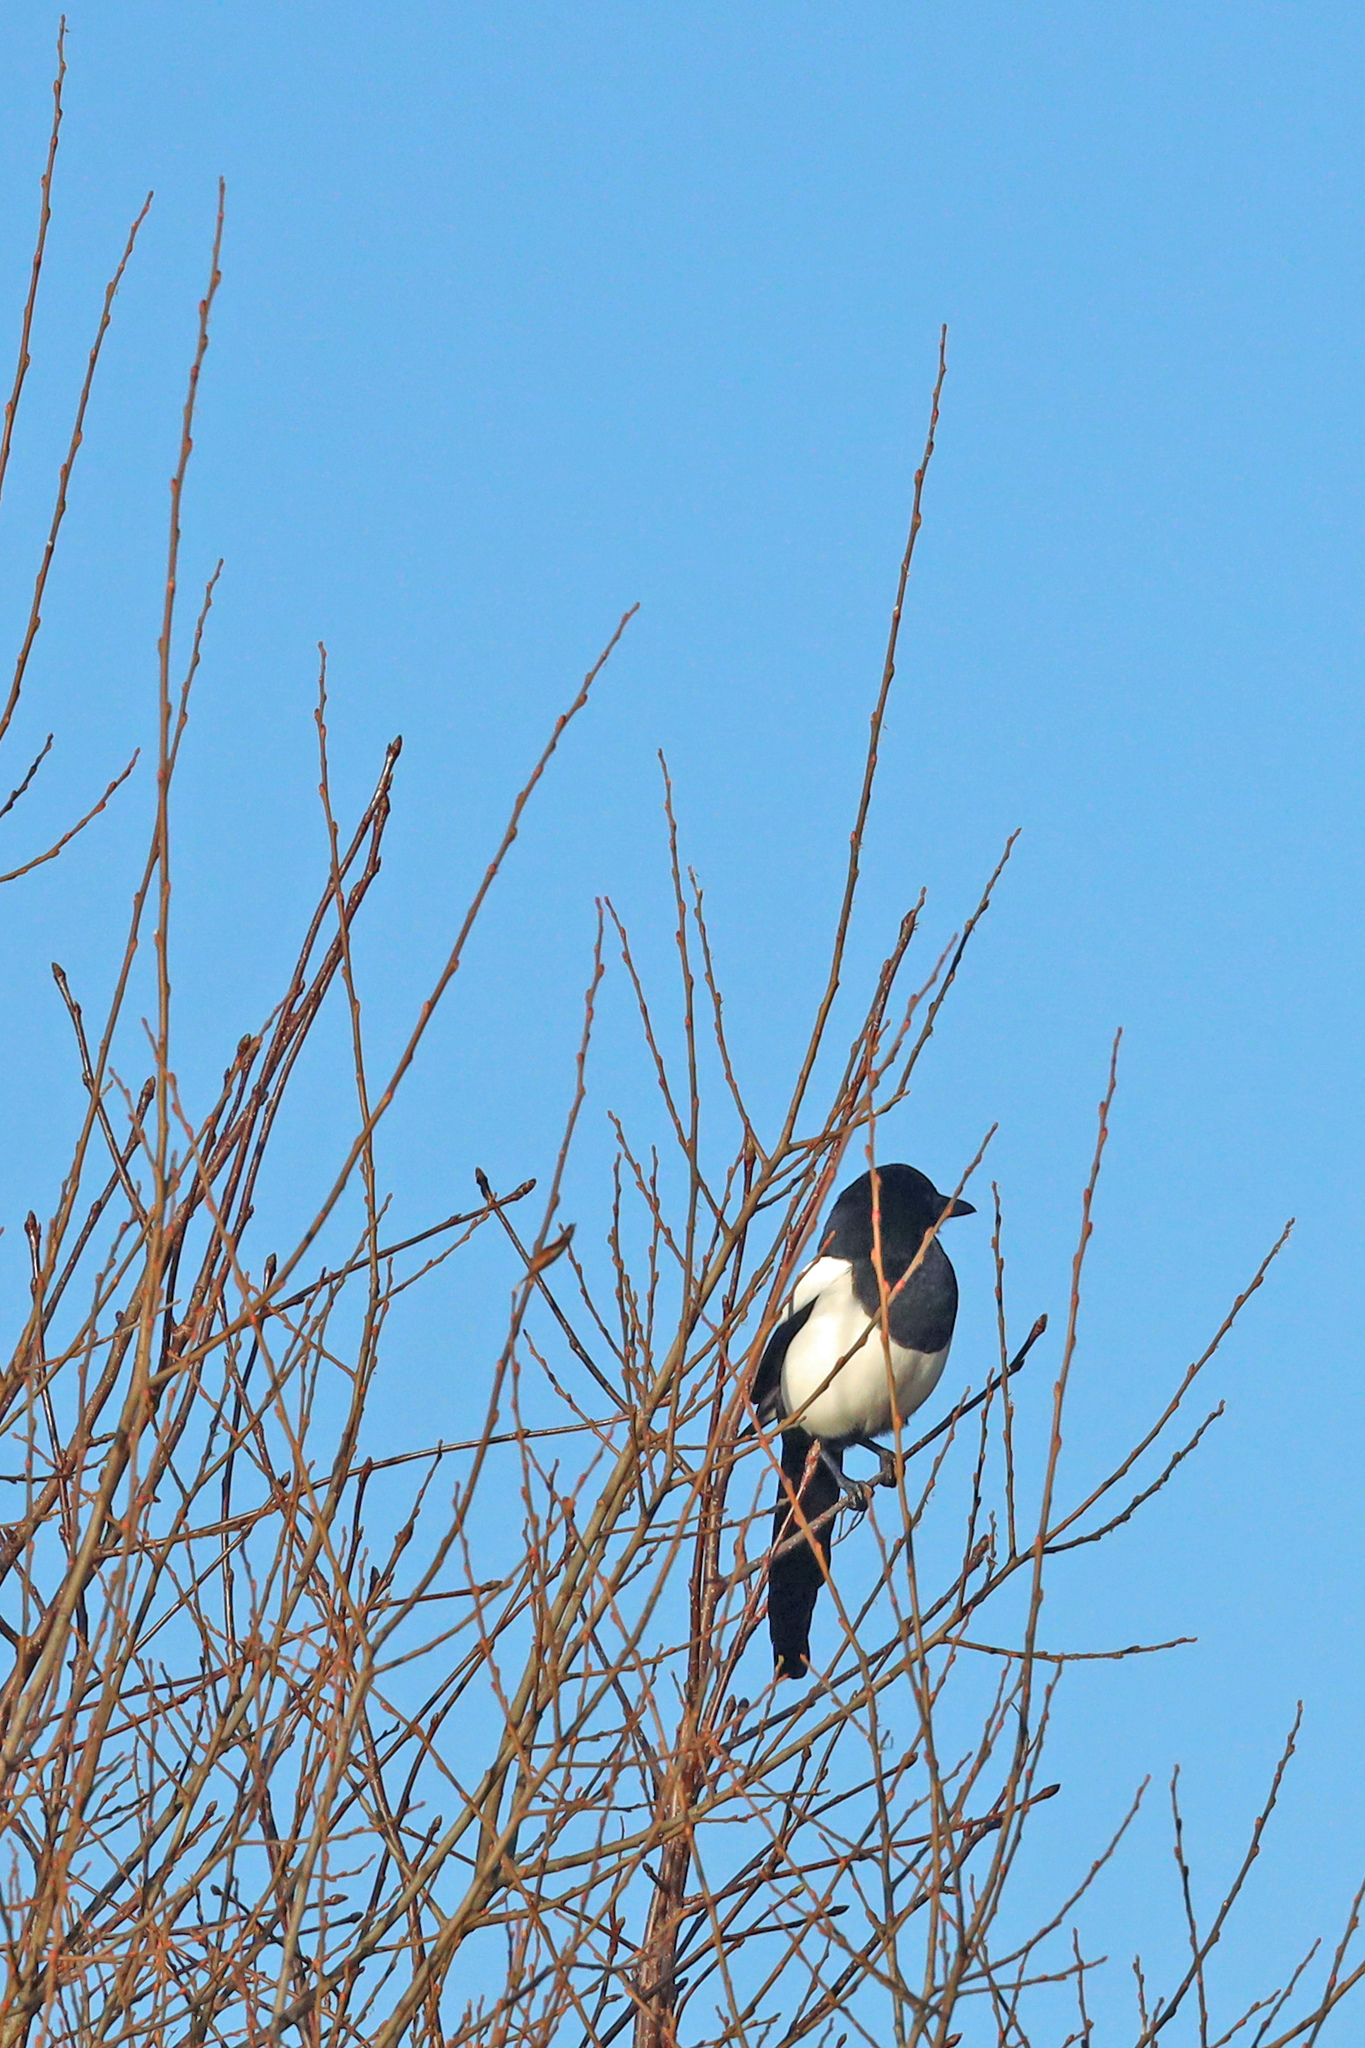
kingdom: Animalia
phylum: Chordata
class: Aves
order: Passeriformes
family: Corvidae
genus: Pica
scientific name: Pica pica
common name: Eurasian magpie
